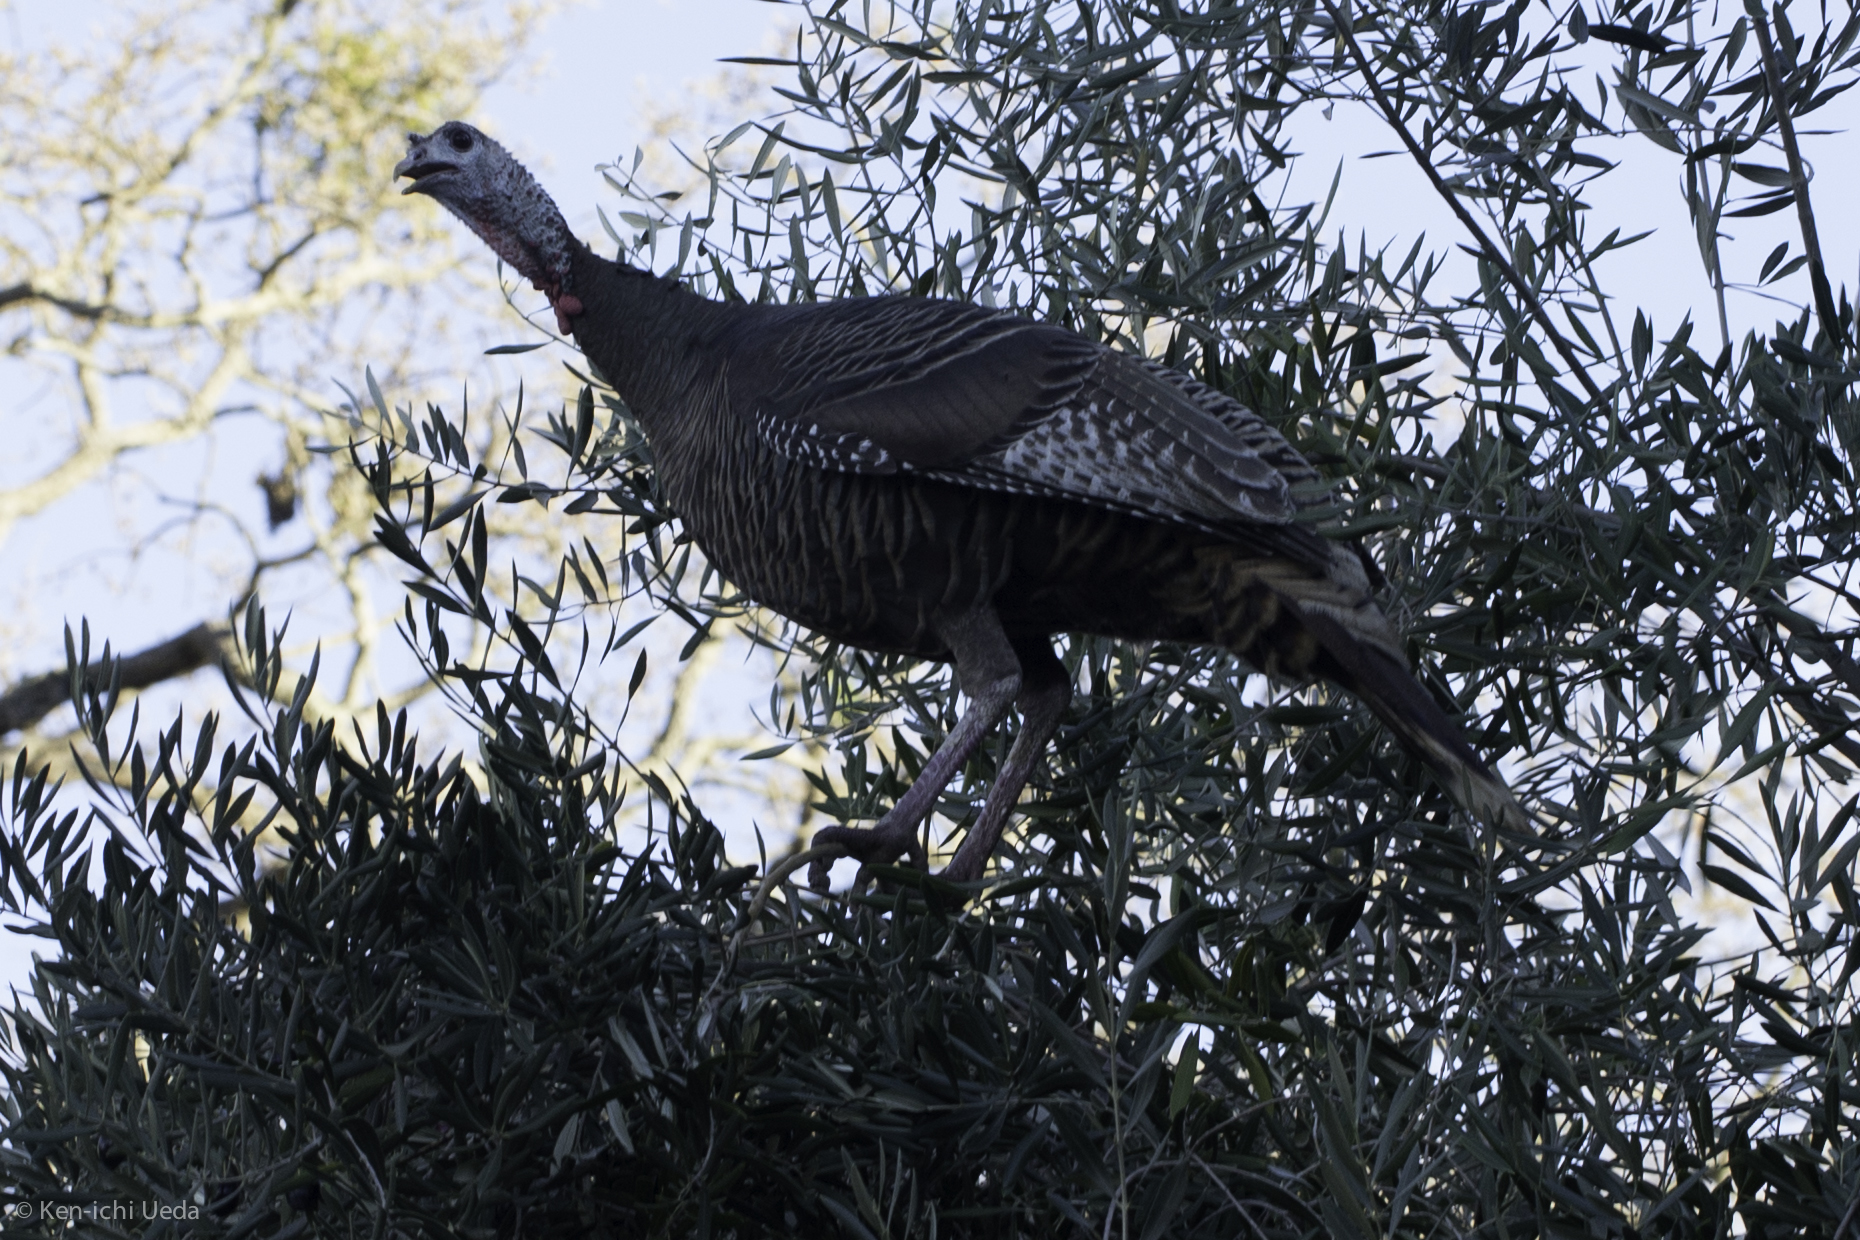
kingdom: Animalia
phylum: Chordata
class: Aves
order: Galliformes
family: Phasianidae
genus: Meleagris
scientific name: Meleagris gallopavo
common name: Wild turkey
